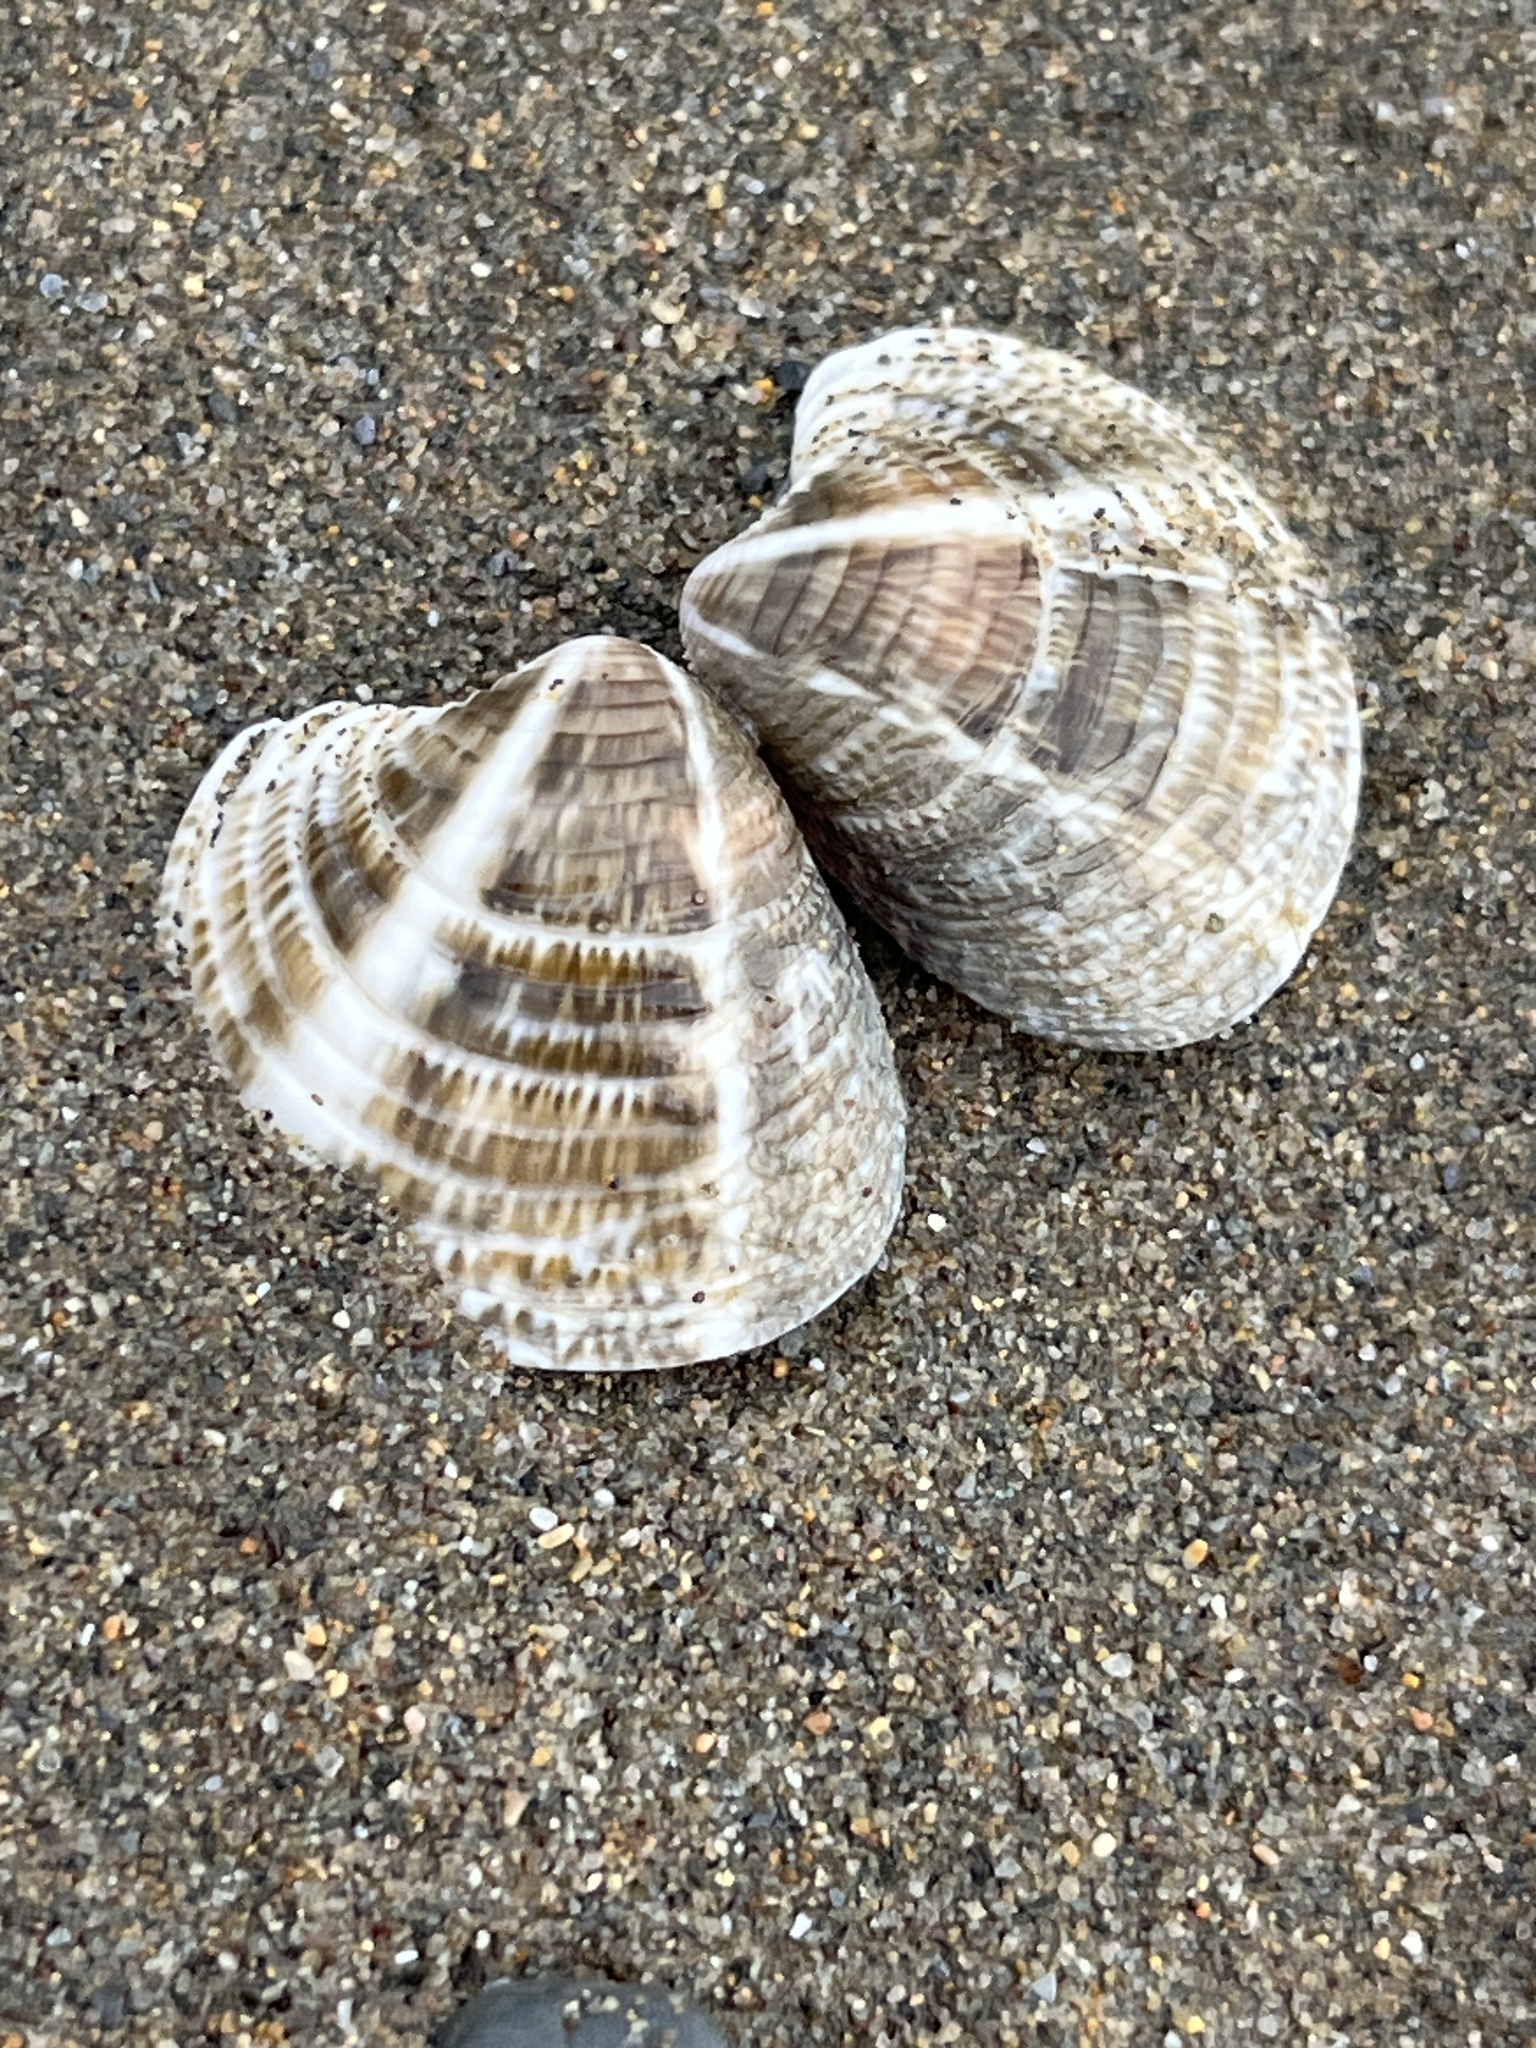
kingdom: Animalia
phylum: Mollusca
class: Bivalvia
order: Venerida
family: Veneridae
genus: Chamelea
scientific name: Chamelea gallina
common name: Chicken venus
